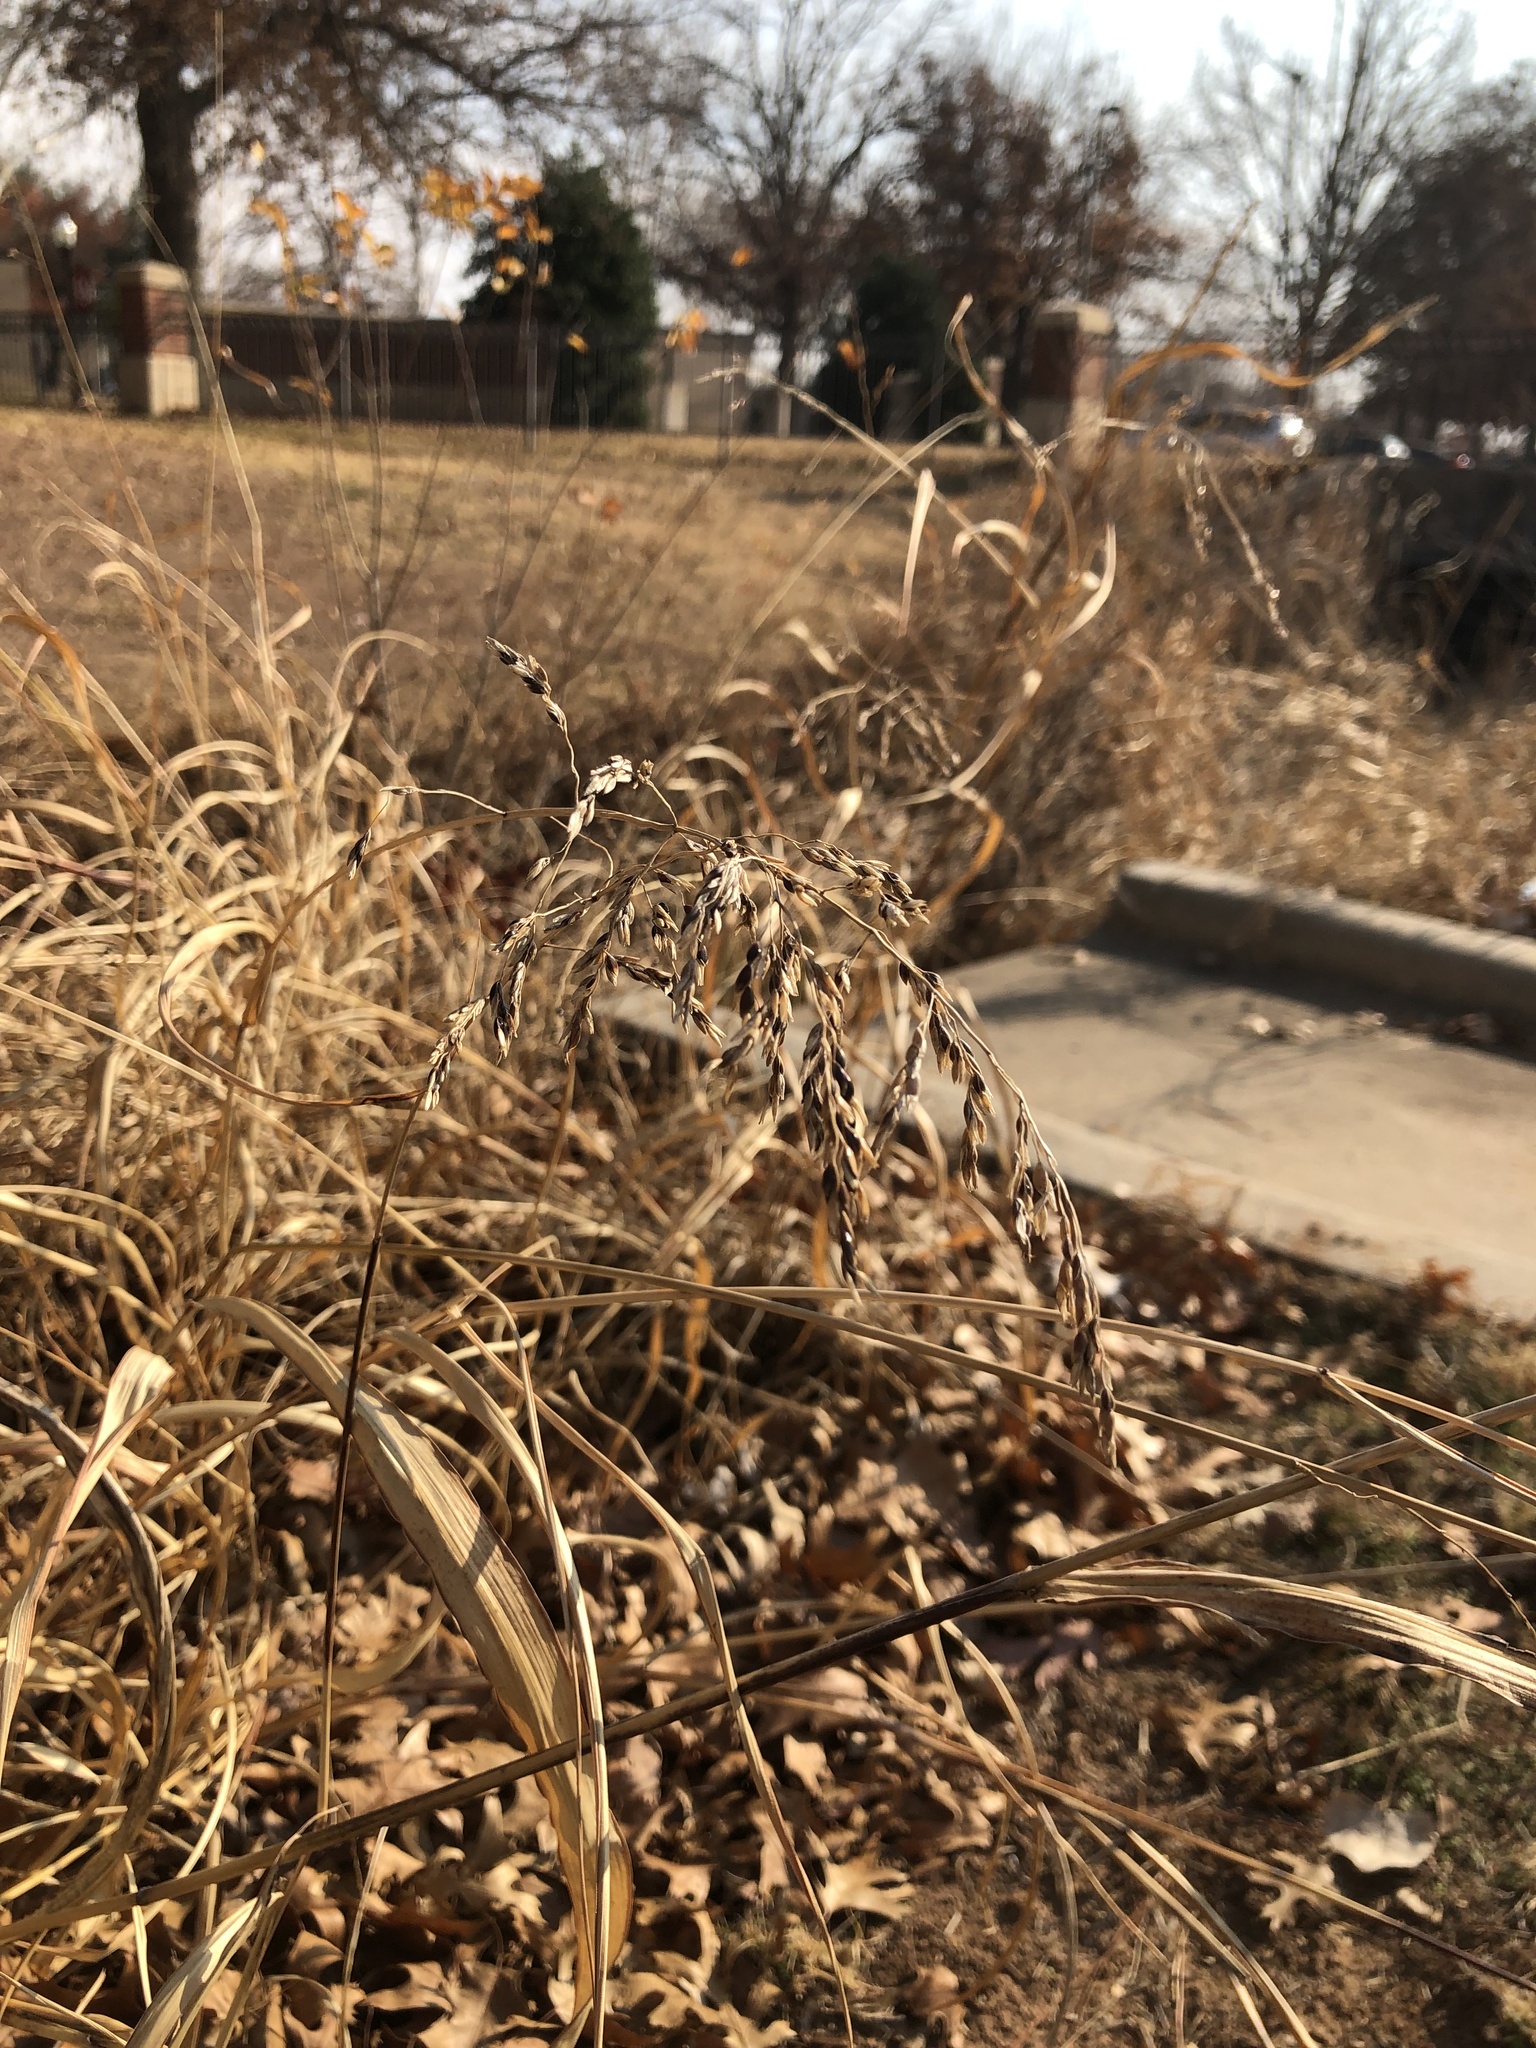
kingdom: Plantae
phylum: Tracheophyta
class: Liliopsida
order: Poales
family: Poaceae
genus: Sorghum
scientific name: Sorghum halepense
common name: Johnson-grass
